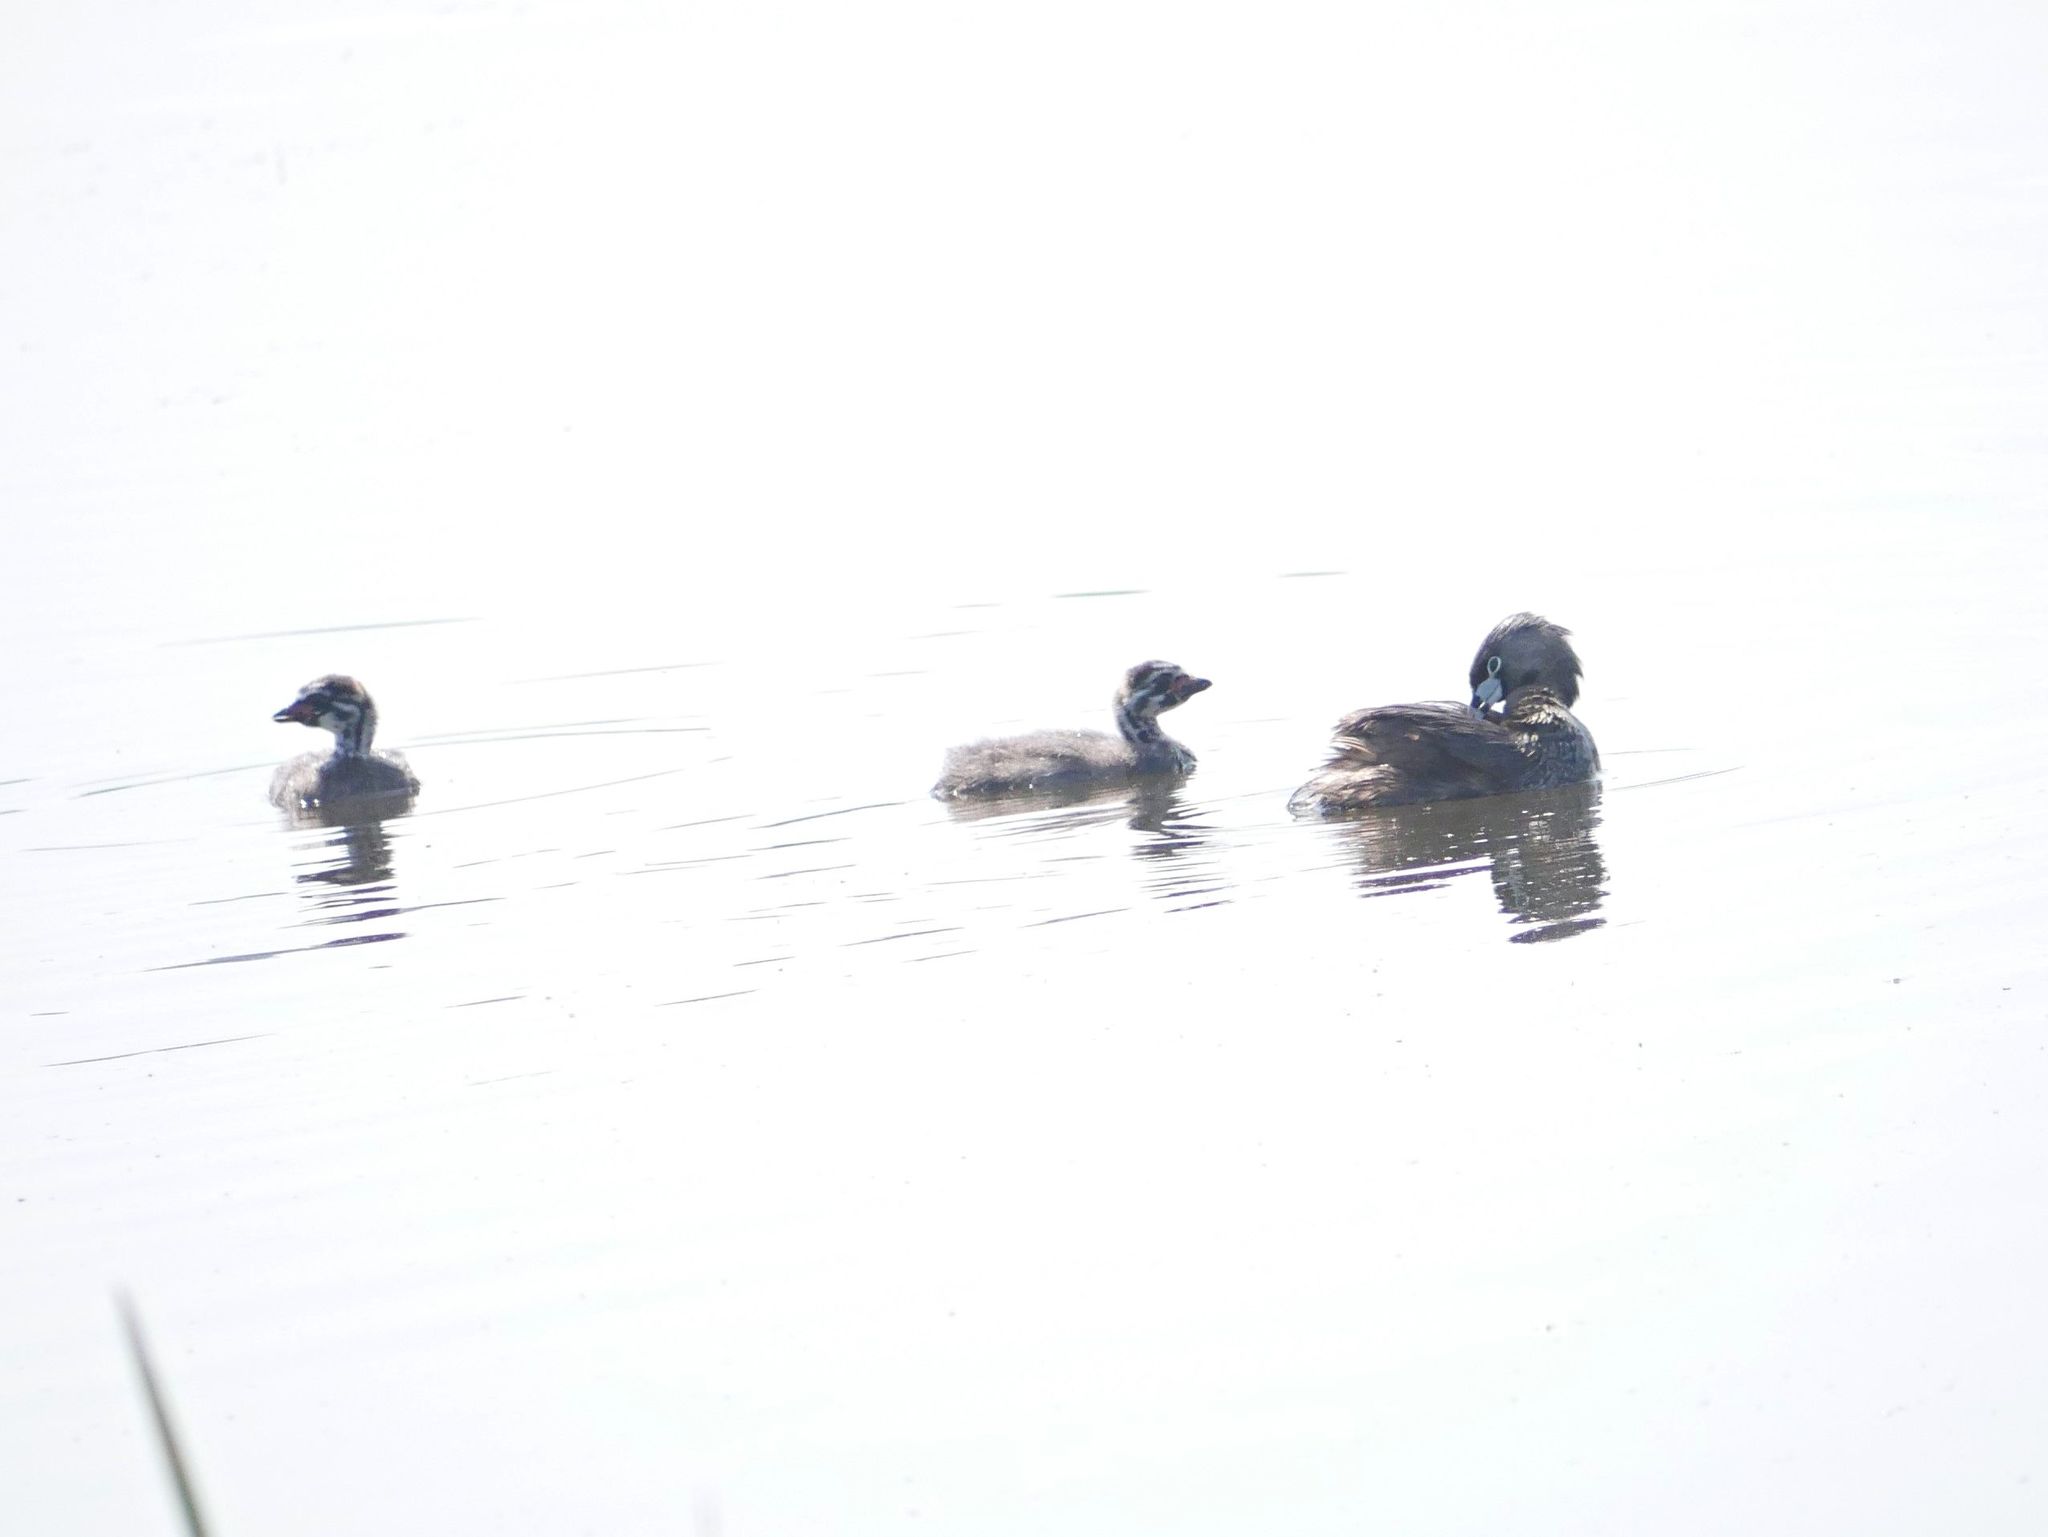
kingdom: Animalia
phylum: Chordata
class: Aves
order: Podicipediformes
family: Podicipedidae
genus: Podilymbus
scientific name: Podilymbus podiceps
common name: Pied-billed grebe
